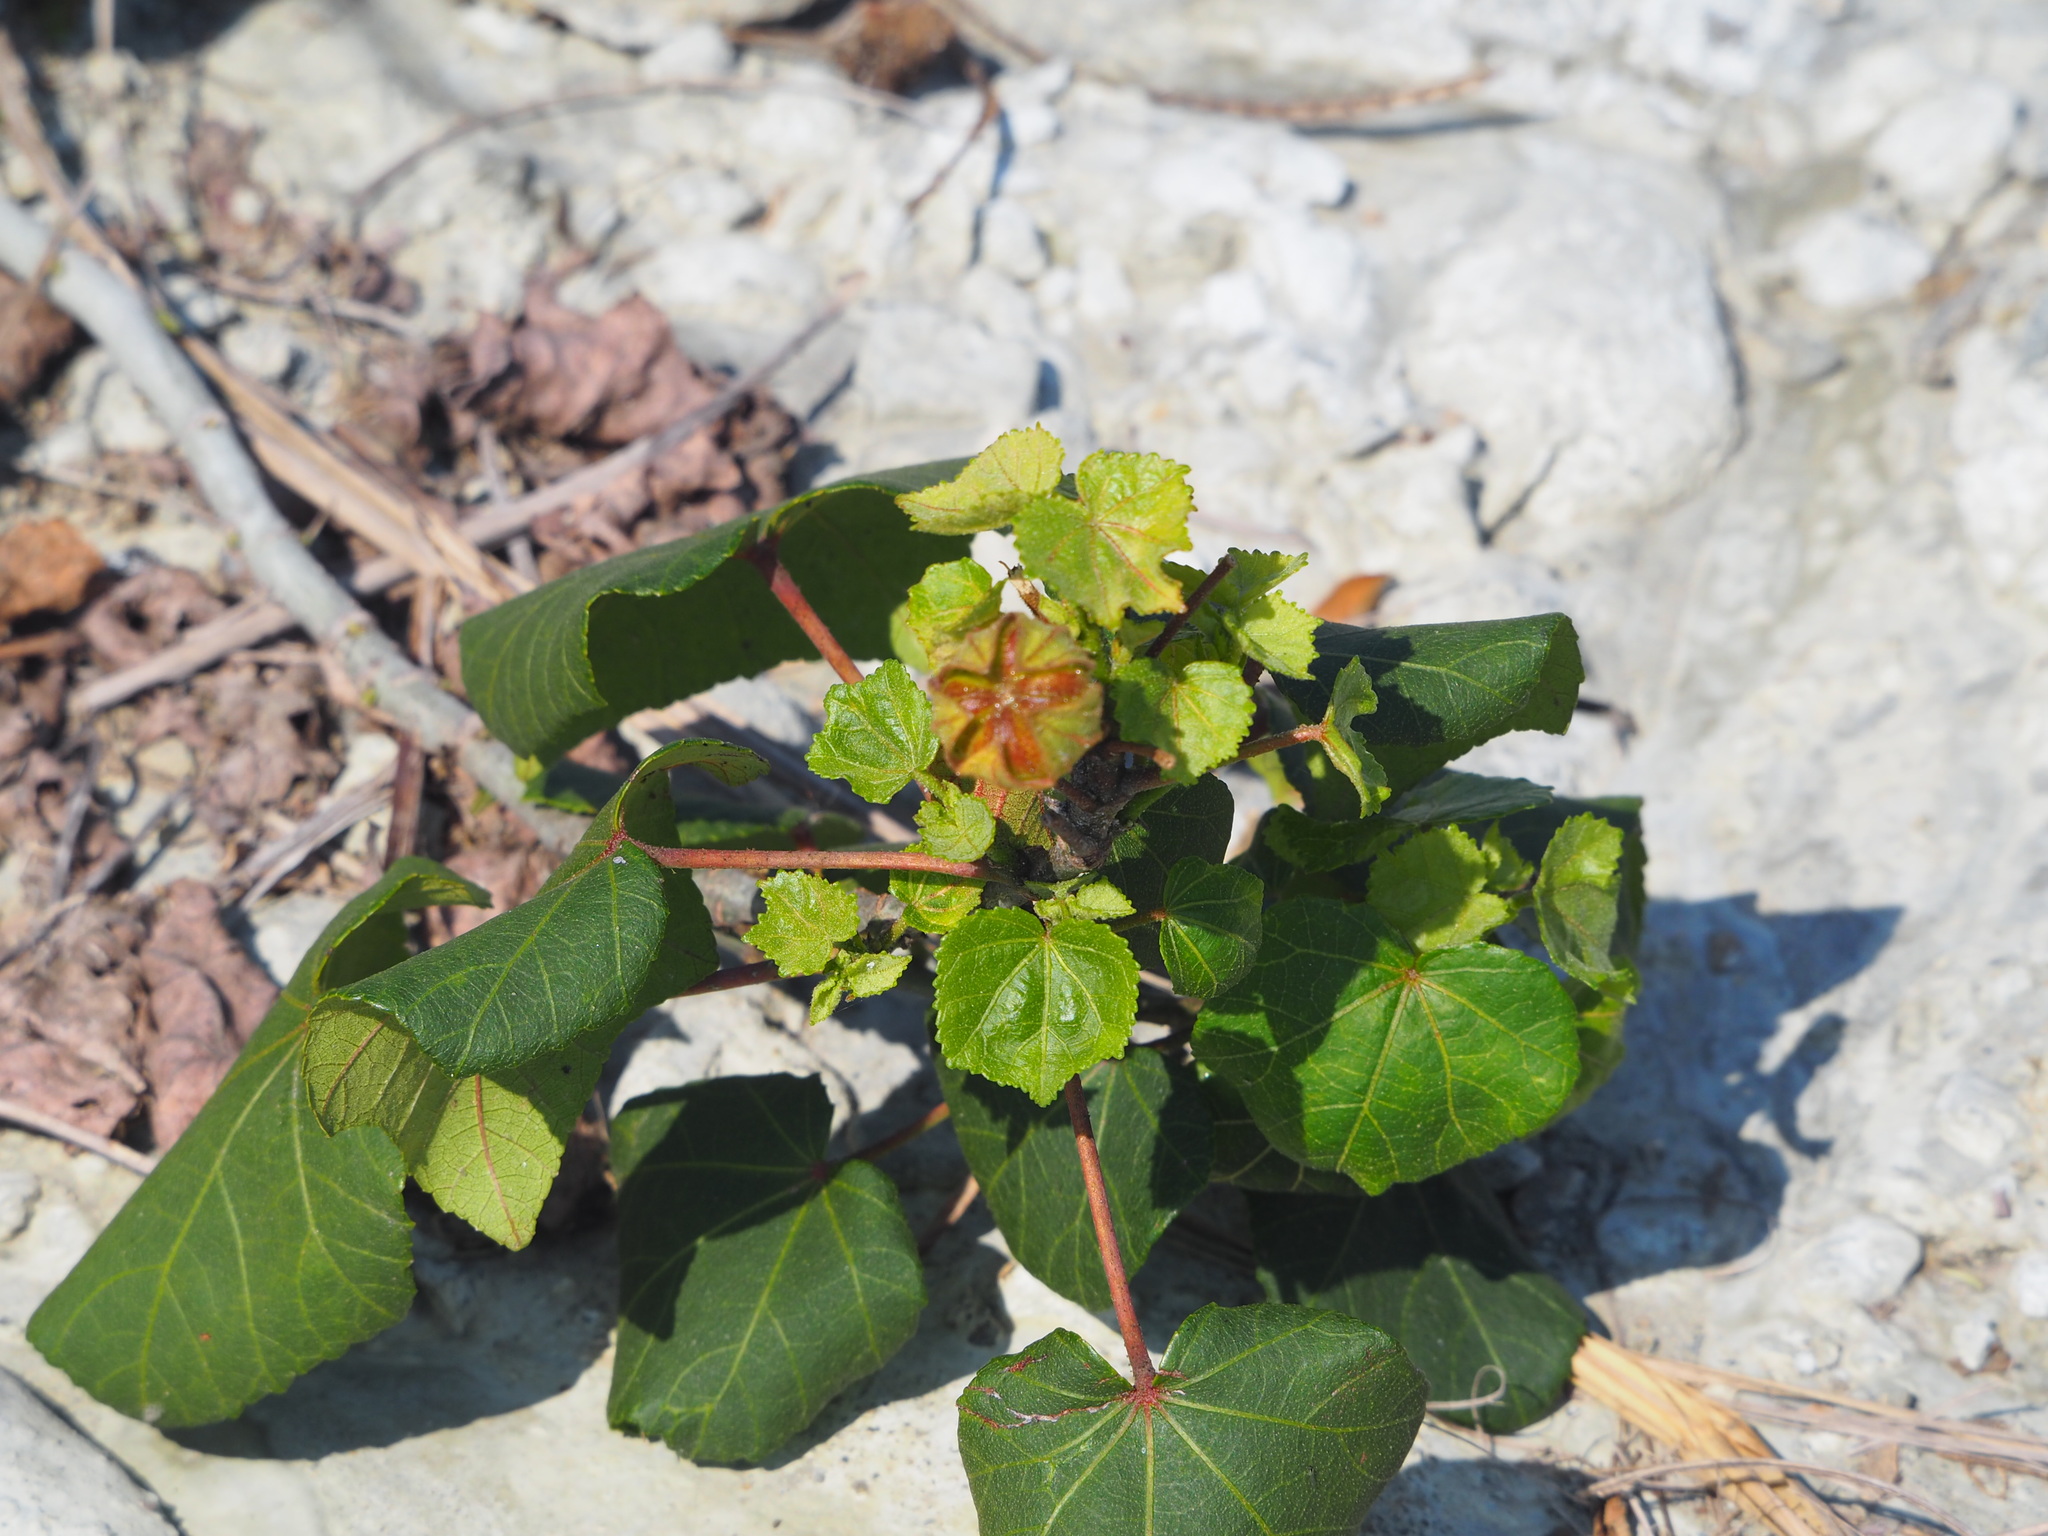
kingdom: Plantae
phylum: Tracheophyta
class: Magnoliopsida
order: Malvales
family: Malvaceae
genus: Hibiscus
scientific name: Hibiscus taiwanensis
